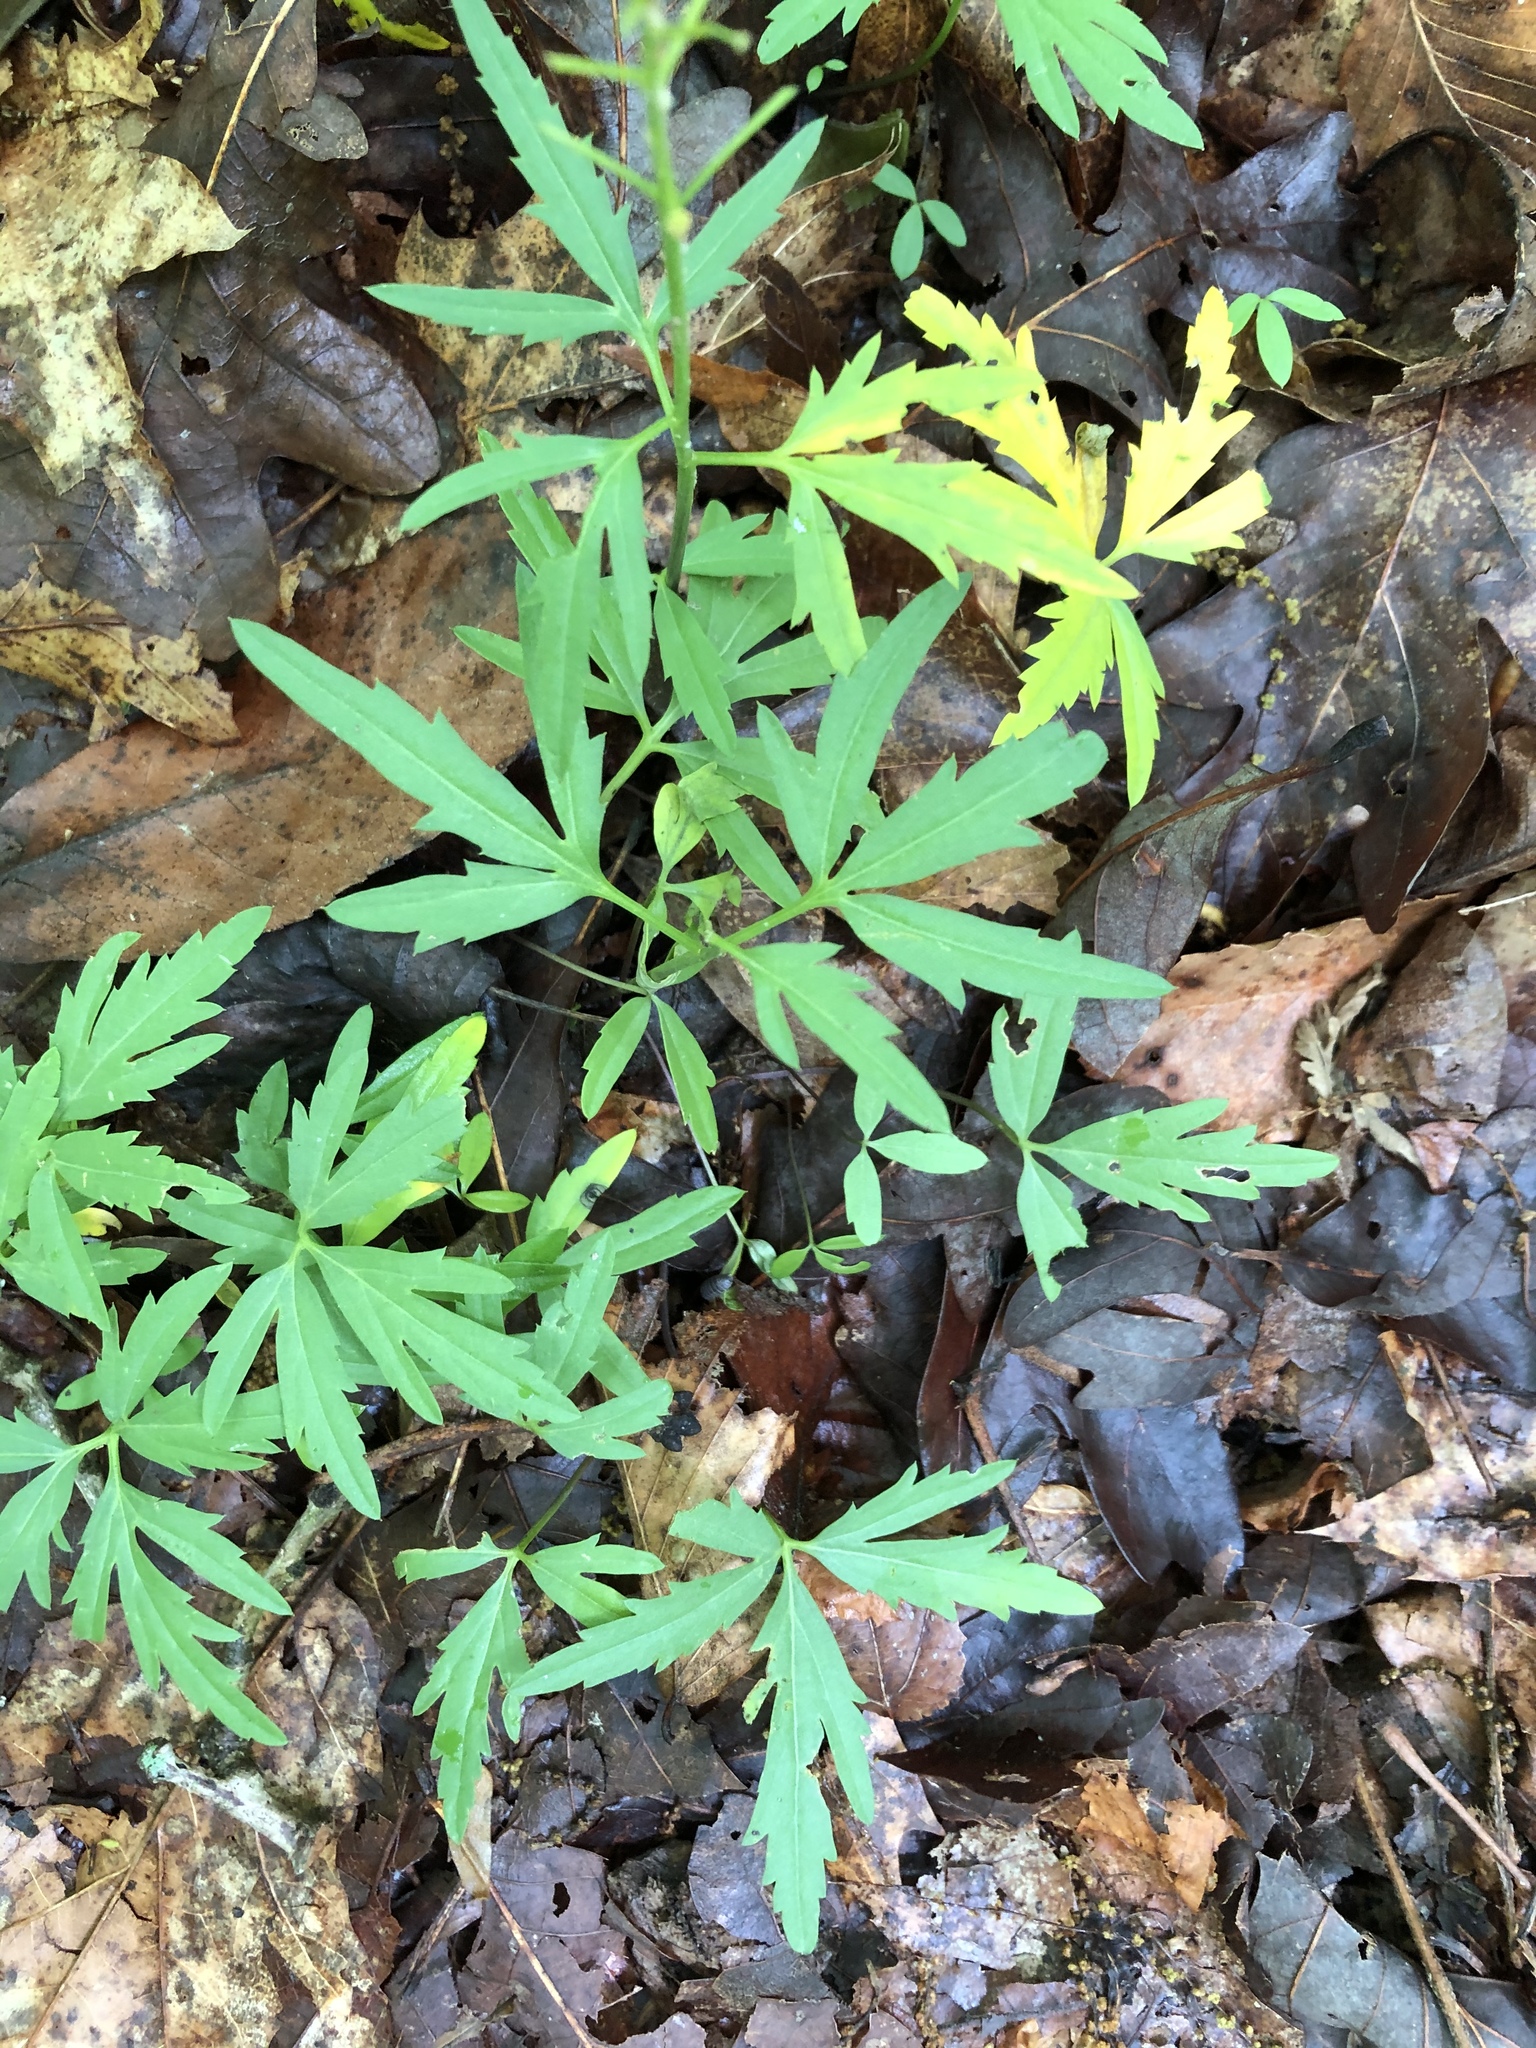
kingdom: Plantae
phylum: Tracheophyta
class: Magnoliopsida
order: Brassicales
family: Brassicaceae
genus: Cardamine
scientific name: Cardamine concatenata
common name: Cut-leaf toothcup
